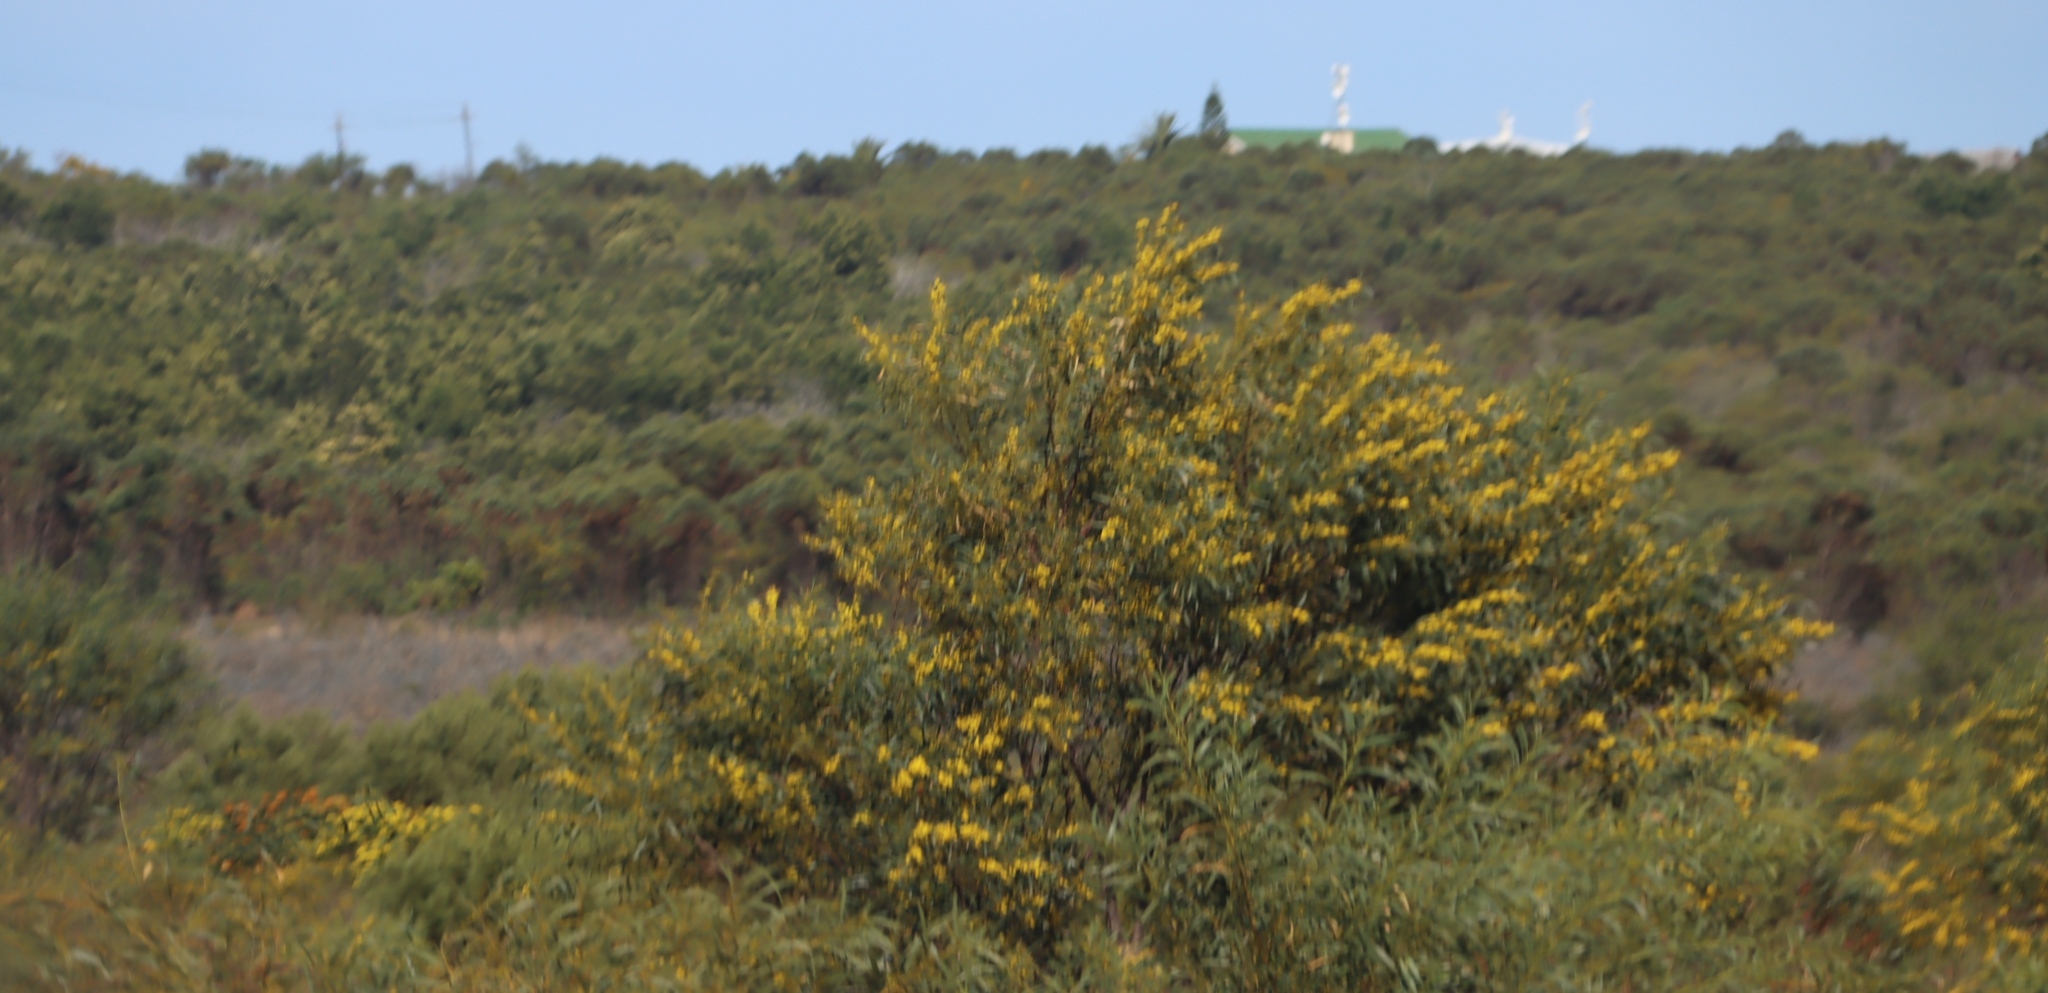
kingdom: Plantae
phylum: Tracheophyta
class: Magnoliopsida
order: Fabales
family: Fabaceae
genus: Acacia
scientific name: Acacia saligna
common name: Orange wattle
